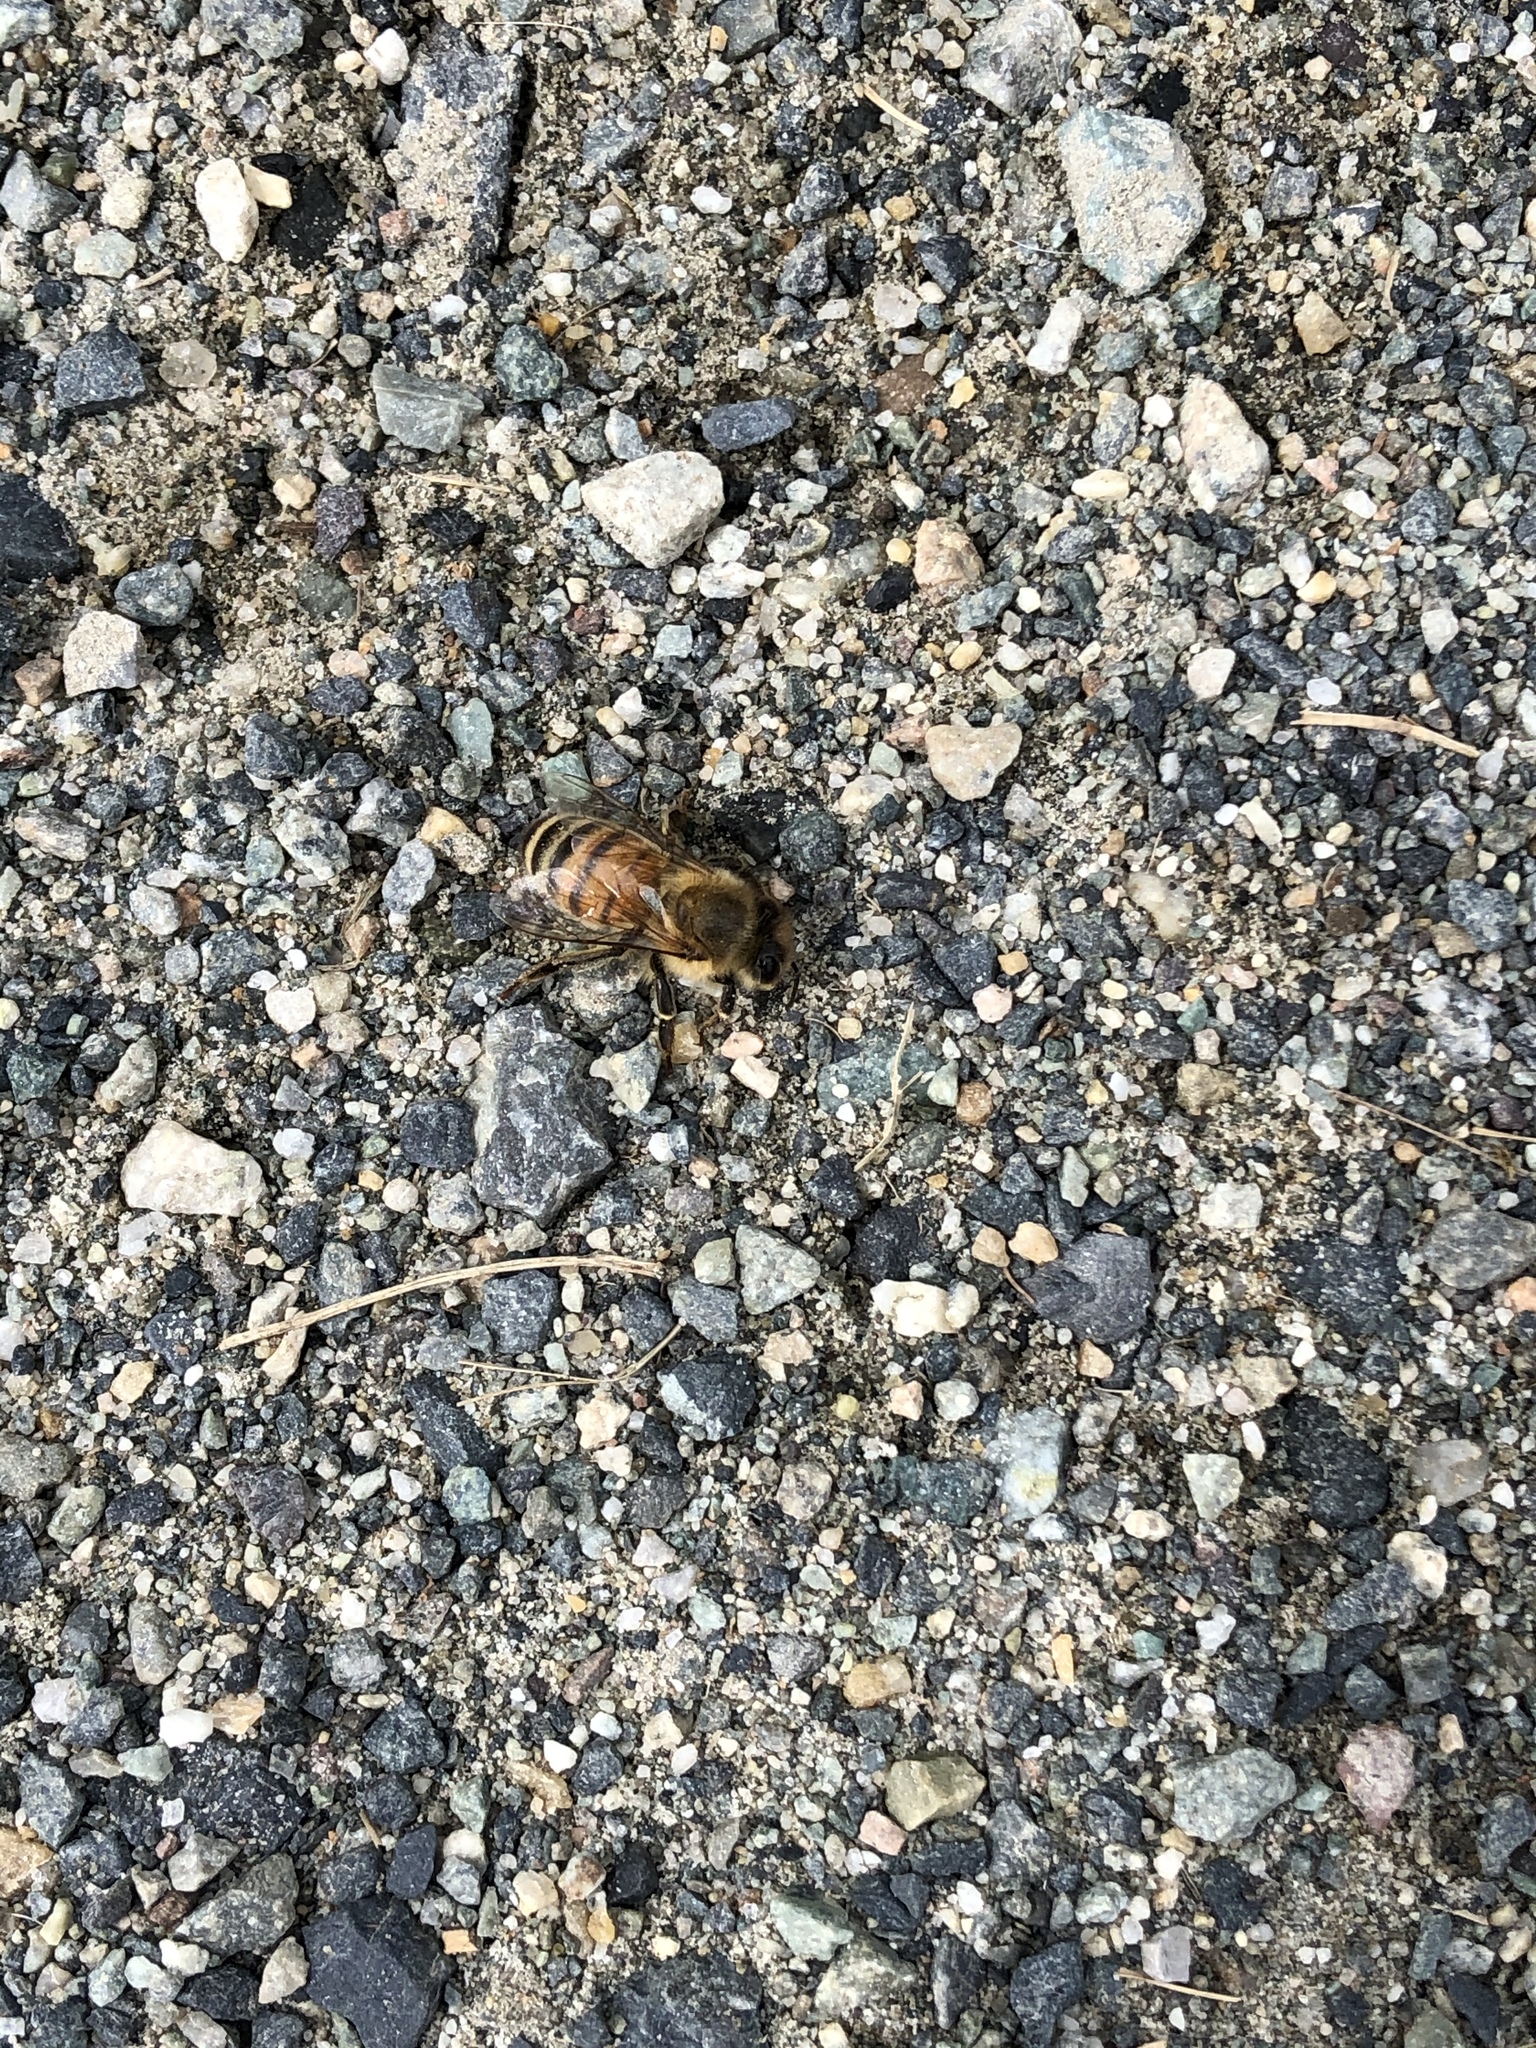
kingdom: Animalia
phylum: Arthropoda
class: Insecta
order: Hymenoptera
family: Apidae
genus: Apis
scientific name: Apis mellifera
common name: Honey bee
